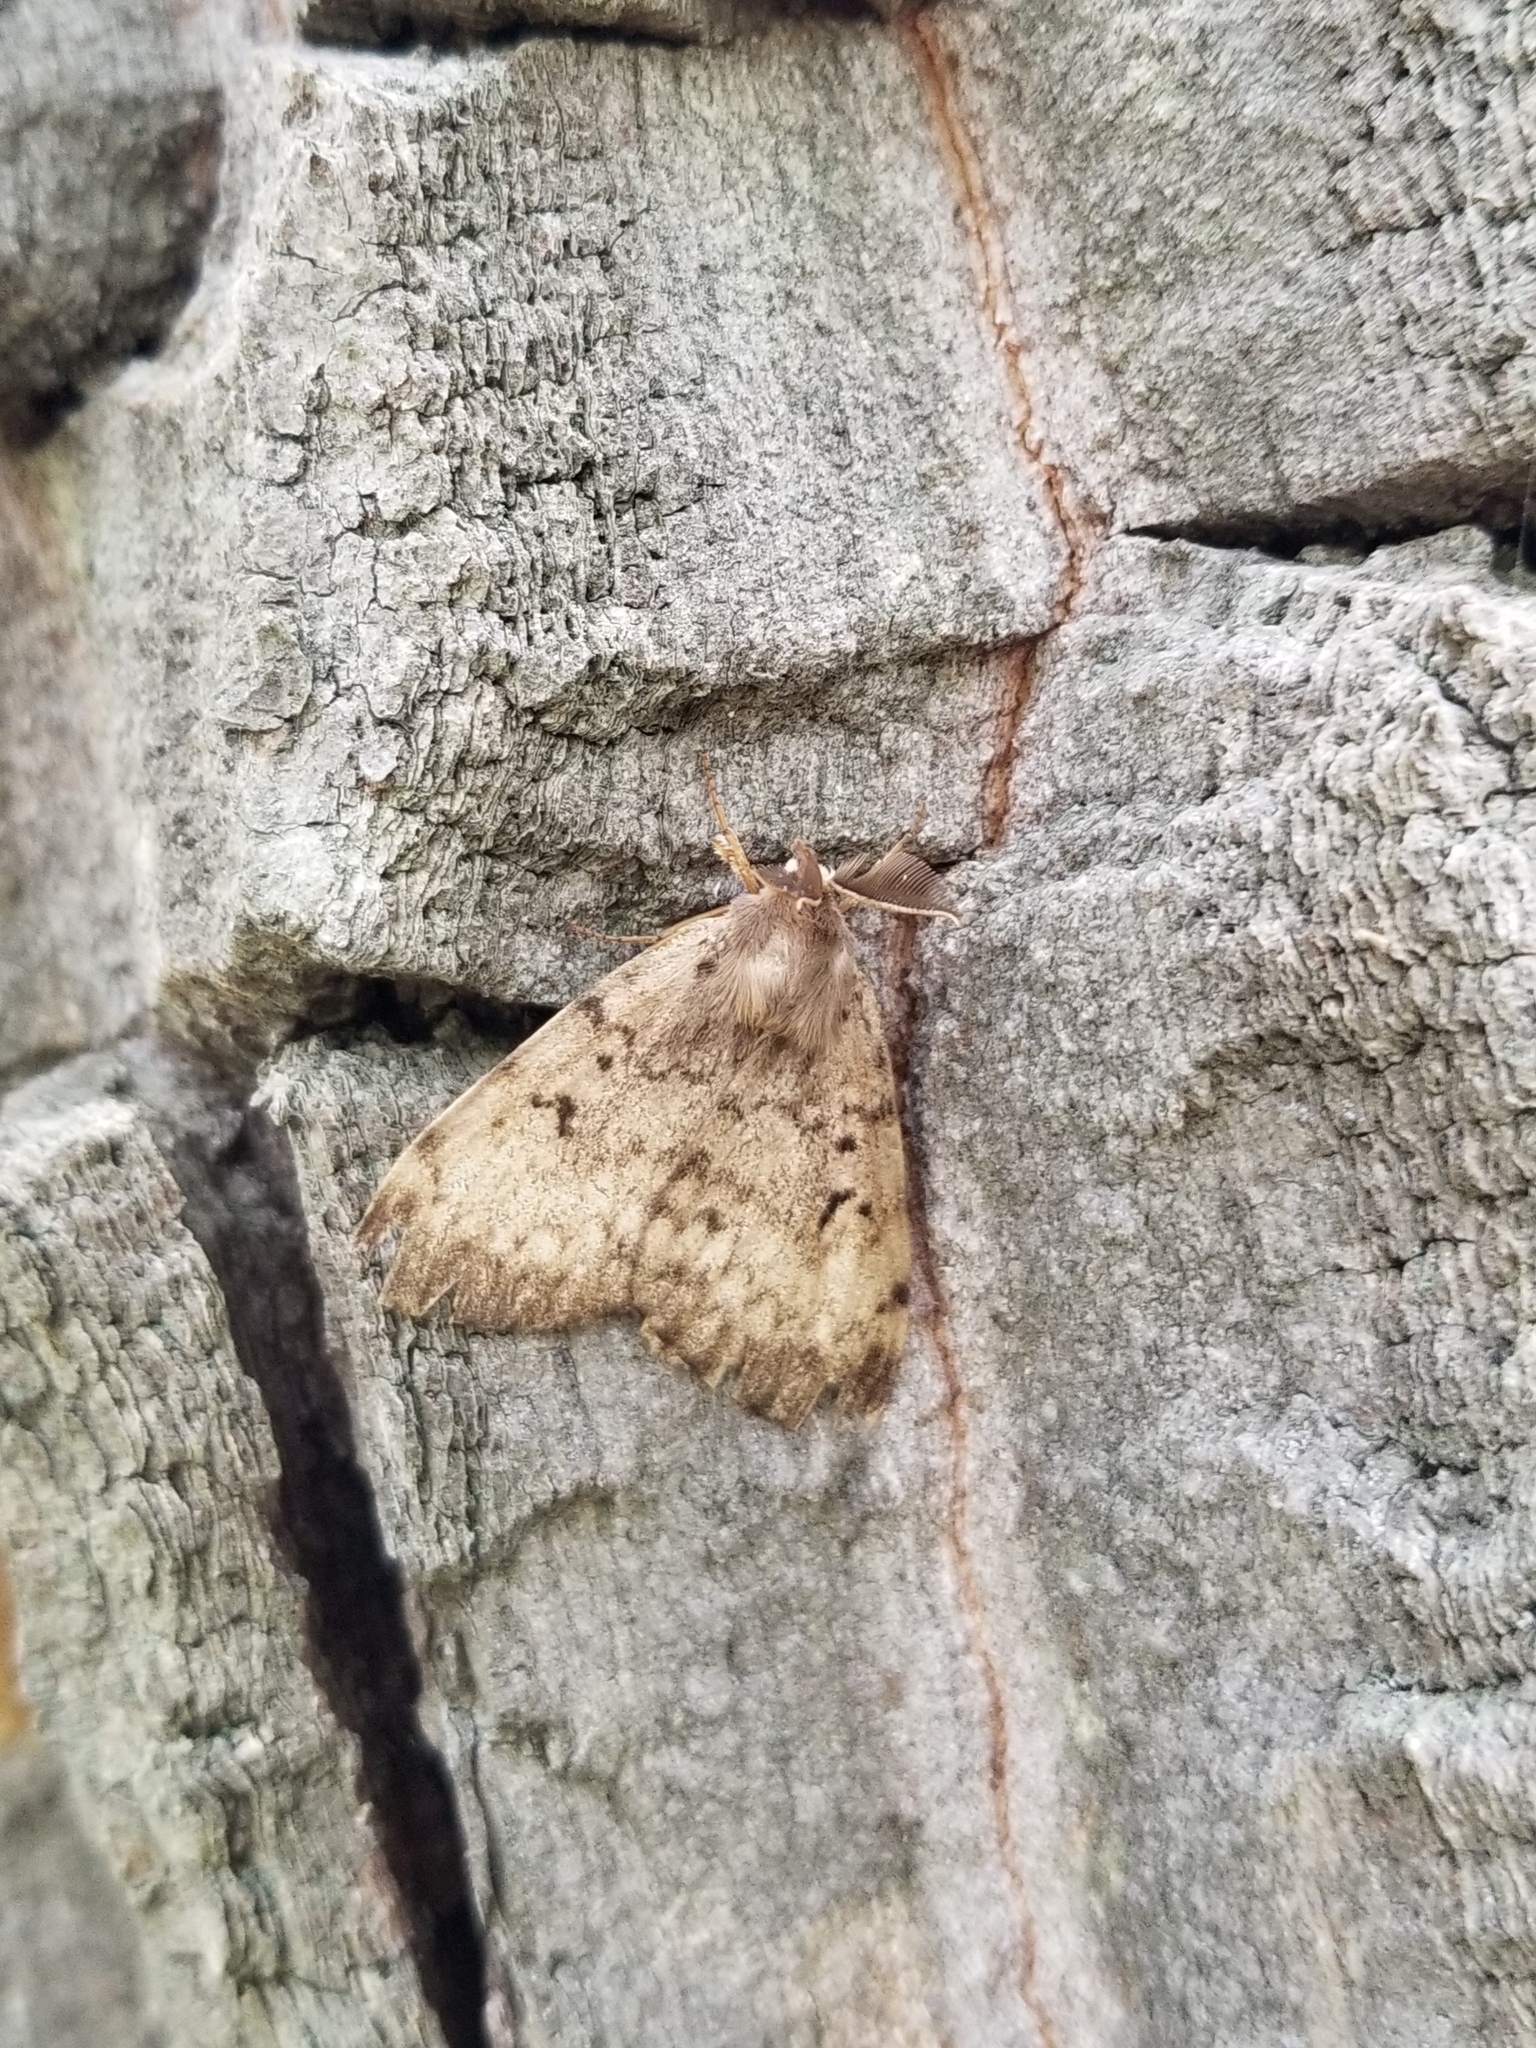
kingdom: Animalia
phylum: Arthropoda
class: Insecta
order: Lepidoptera
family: Erebidae
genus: Lymantria
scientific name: Lymantria dispar
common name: Gypsy moth
